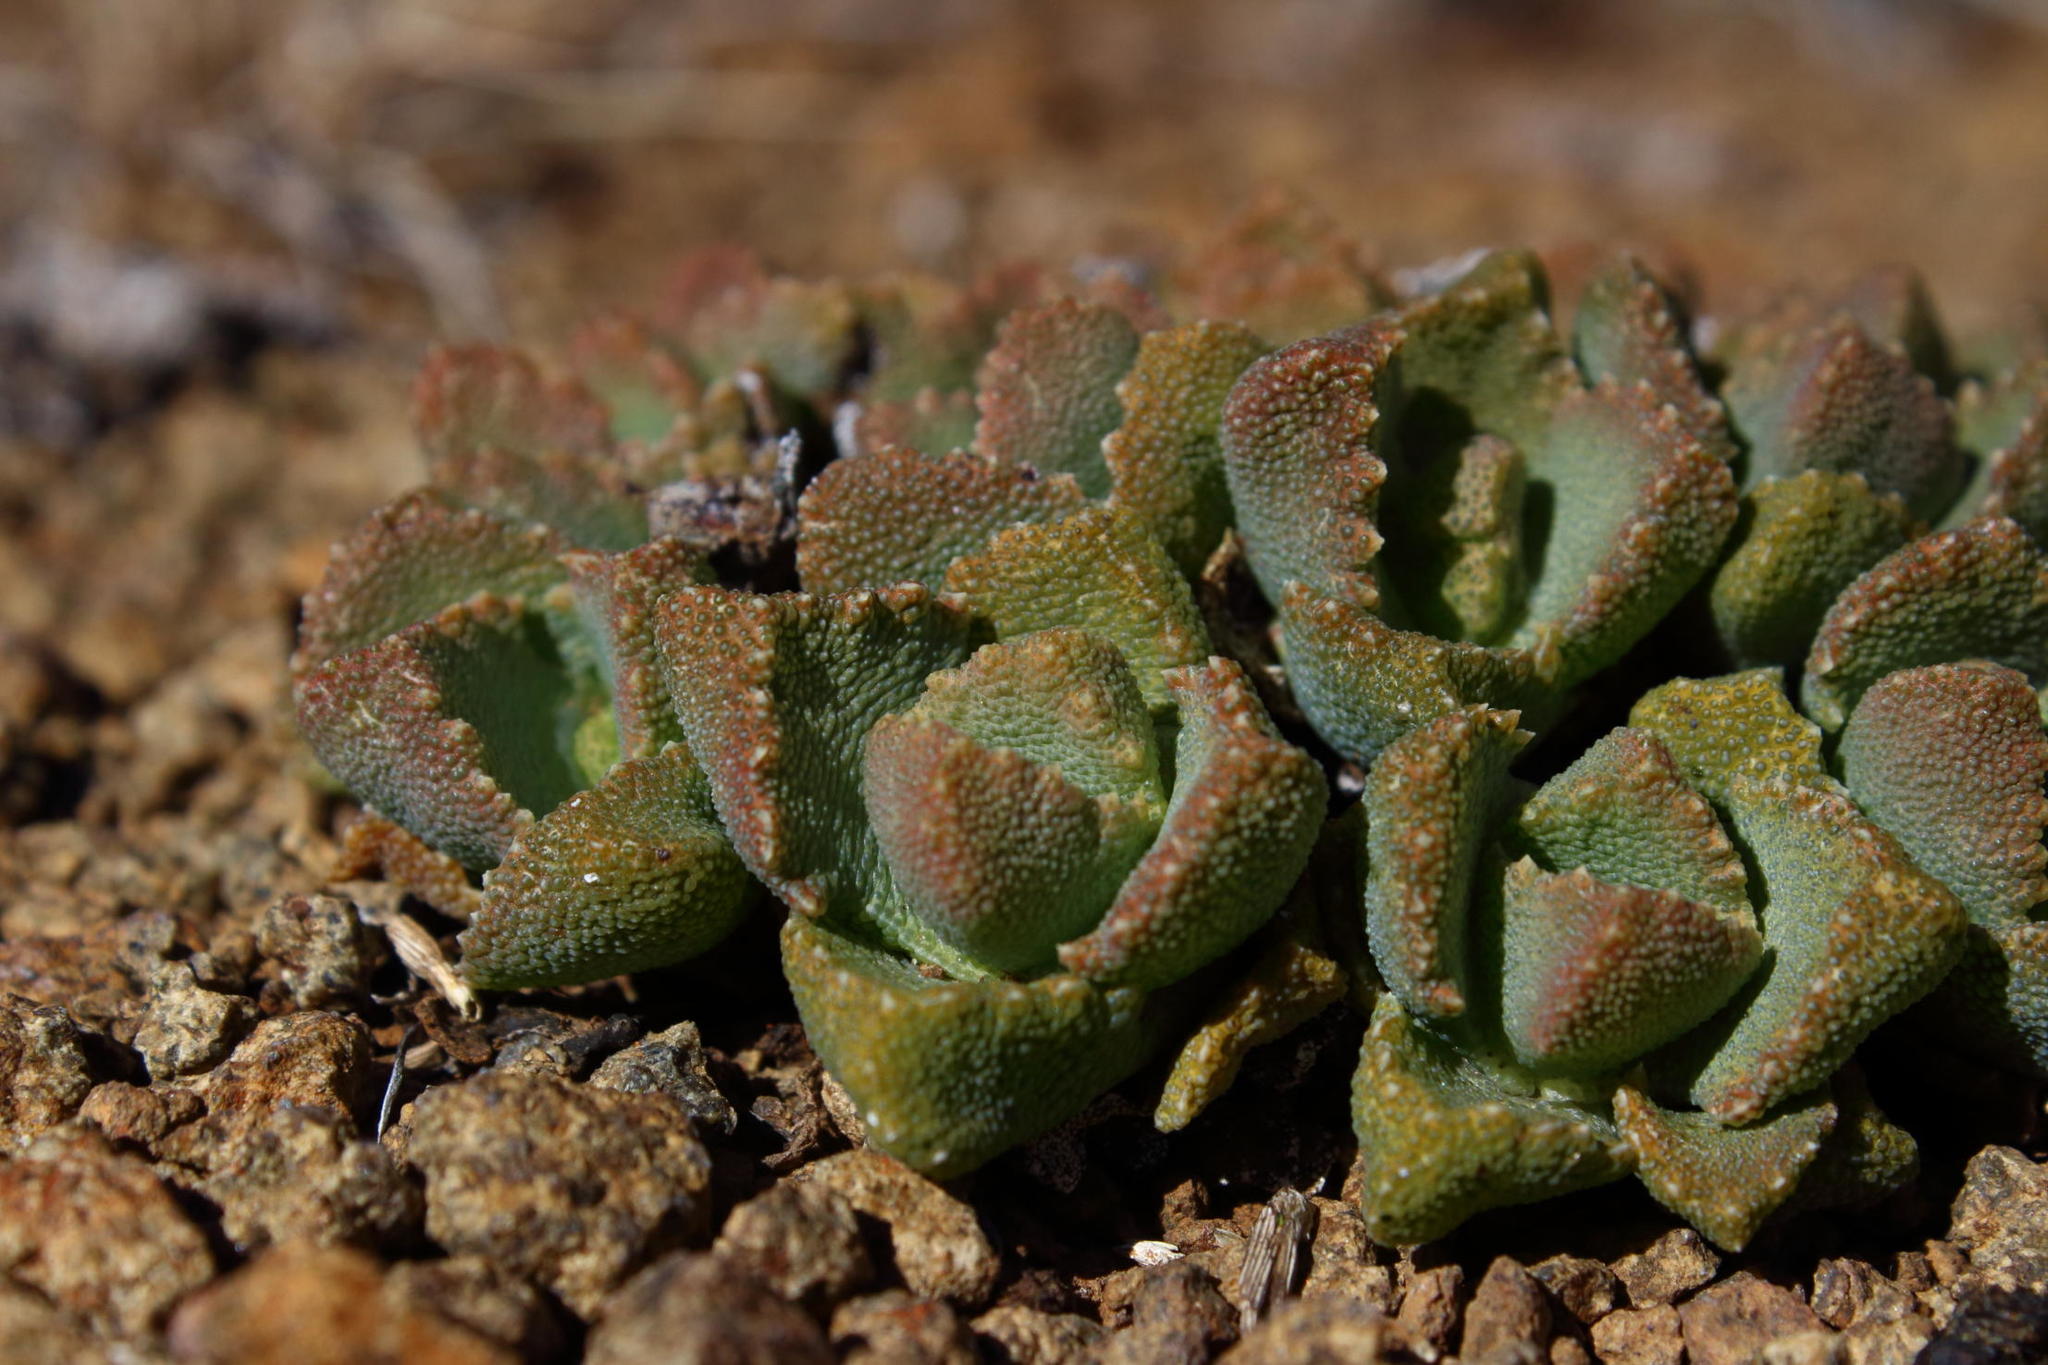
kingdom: Plantae
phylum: Tracheophyta
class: Magnoliopsida
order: Caryophyllales
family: Aizoaceae
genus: Stomatium
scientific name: Stomatium bolusiae
